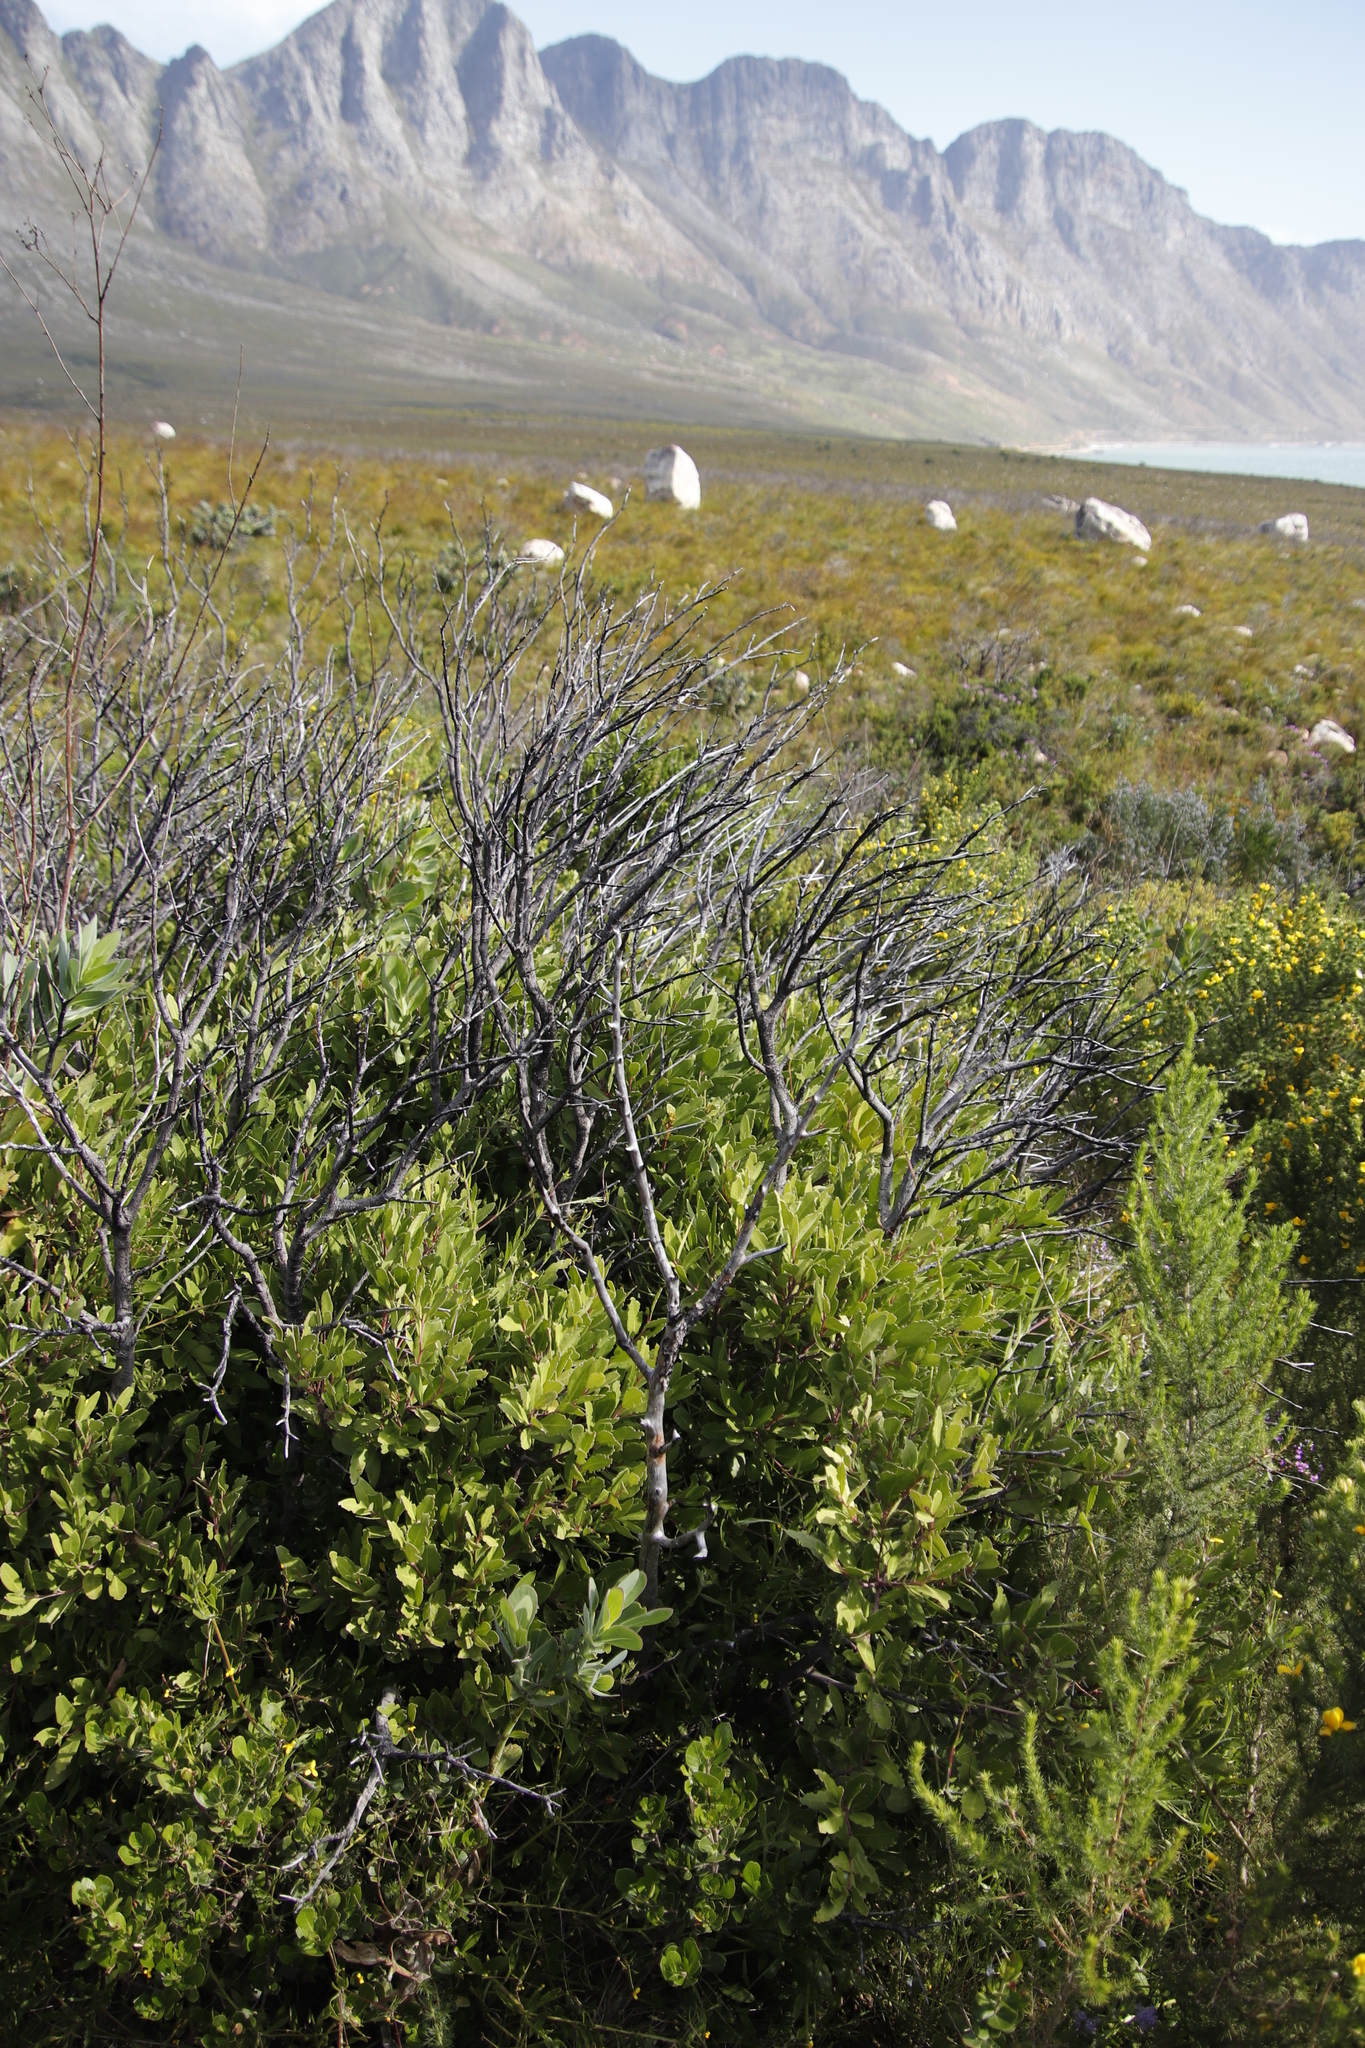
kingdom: Plantae
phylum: Tracheophyta
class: Magnoliopsida
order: Celastrales
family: Celastraceae
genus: Gymnosporia
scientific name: Gymnosporia laurina
